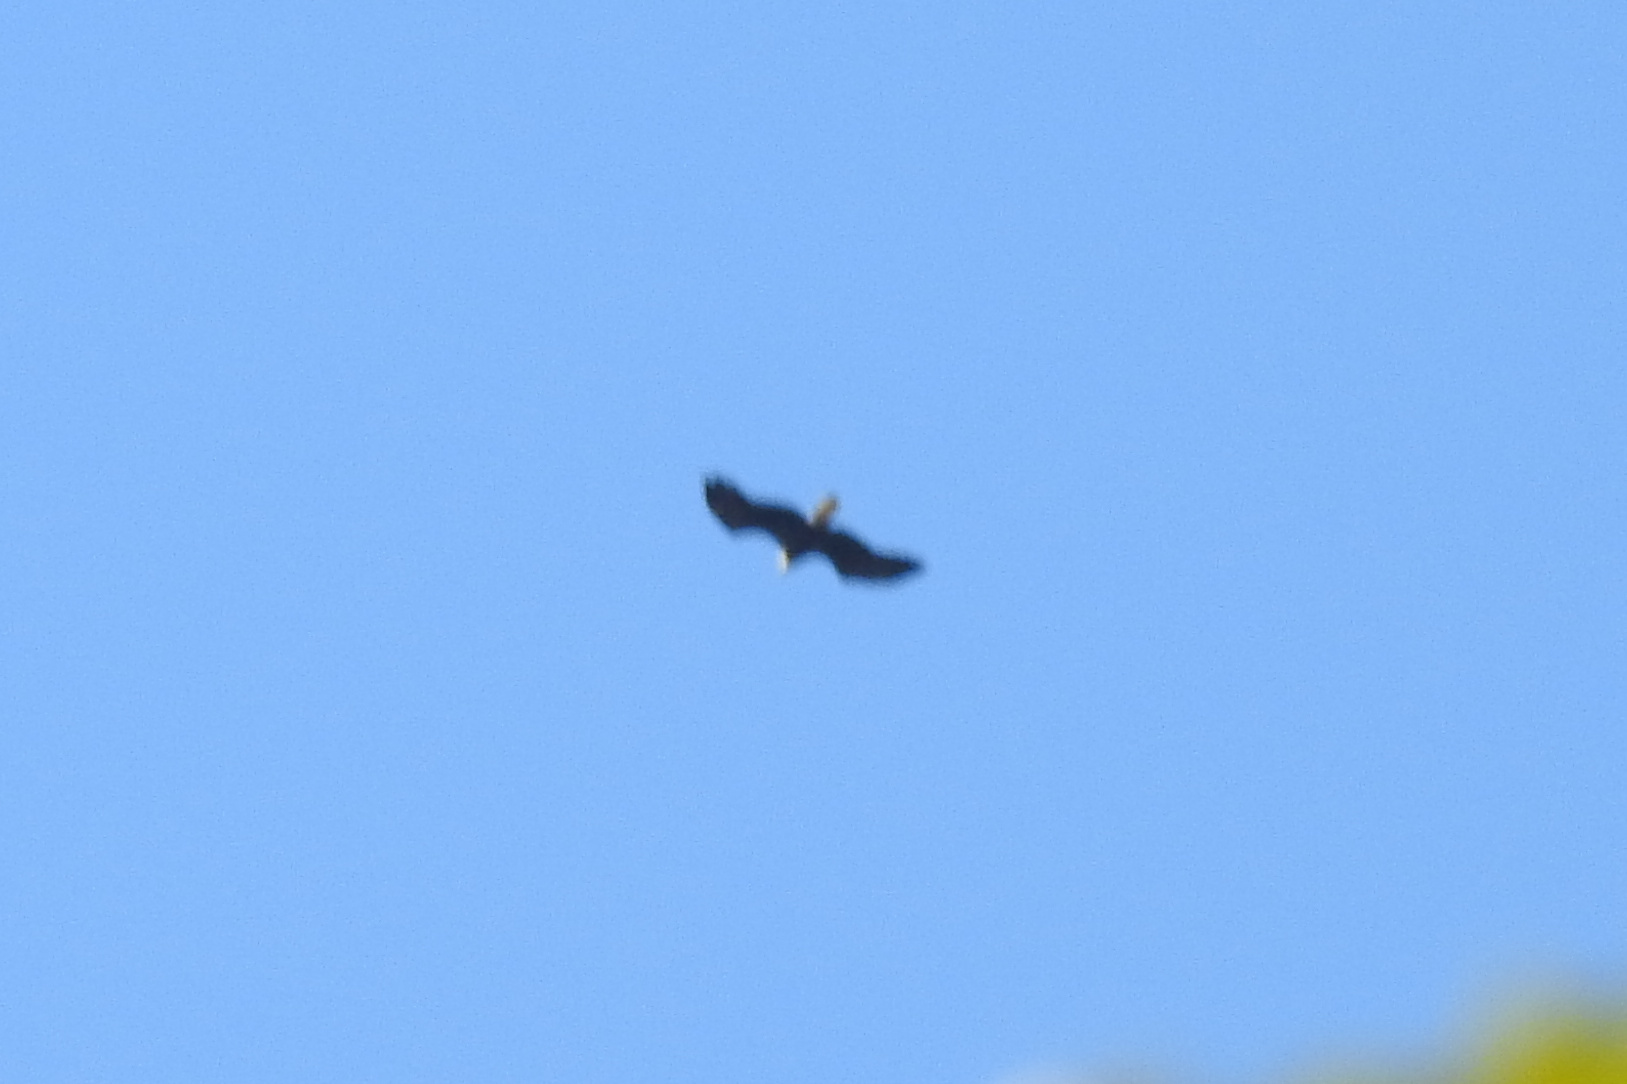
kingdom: Animalia
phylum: Chordata
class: Aves
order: Accipitriformes
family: Accipitridae
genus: Haliaeetus
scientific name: Haliaeetus leucocephalus
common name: Bald eagle
